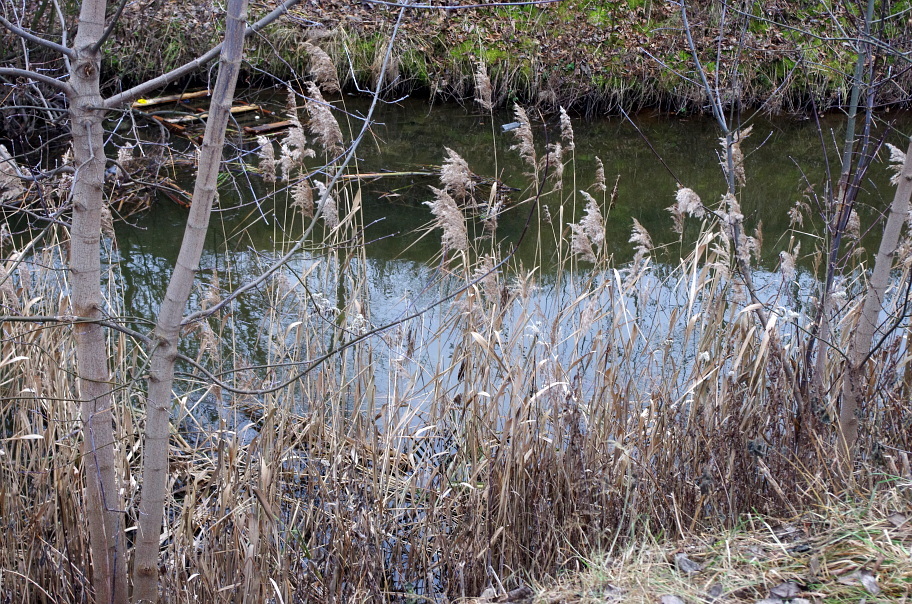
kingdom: Plantae
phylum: Tracheophyta
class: Liliopsida
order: Poales
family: Poaceae
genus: Phragmites
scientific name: Phragmites australis
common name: Common reed
